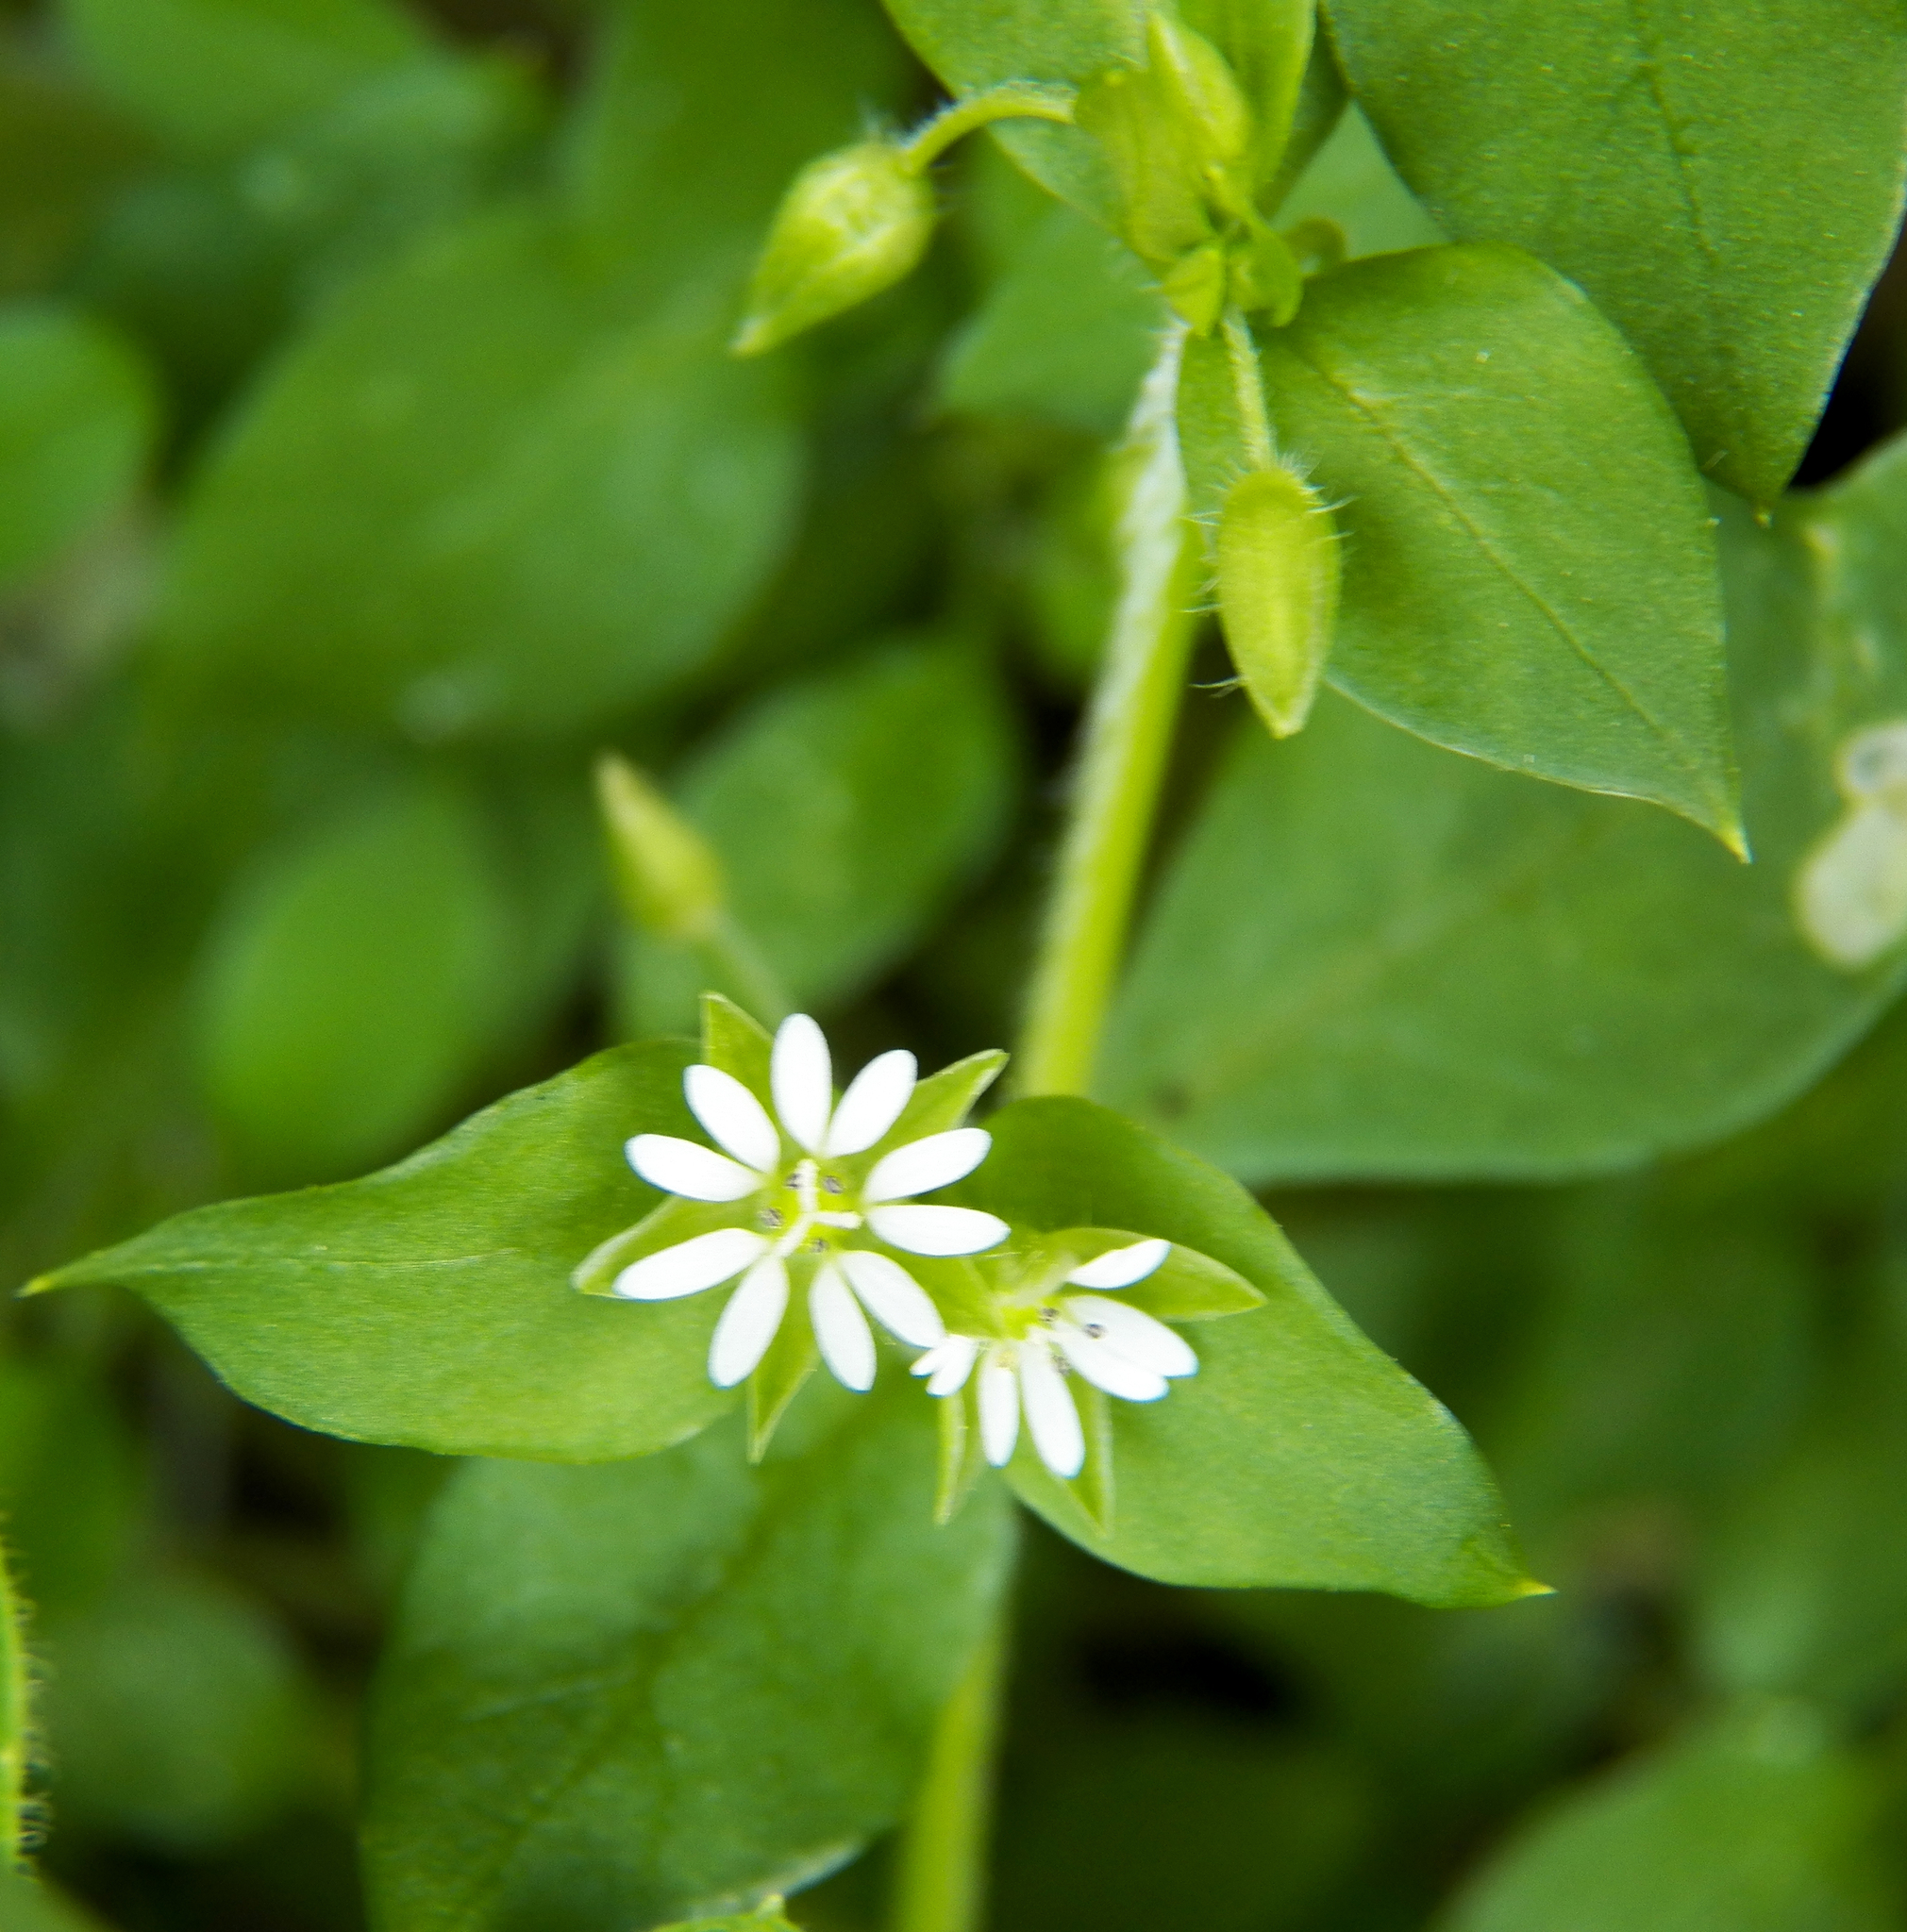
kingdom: Plantae
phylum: Tracheophyta
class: Magnoliopsida
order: Caryophyllales
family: Caryophyllaceae
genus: Stellaria
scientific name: Stellaria media
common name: Common chickweed
